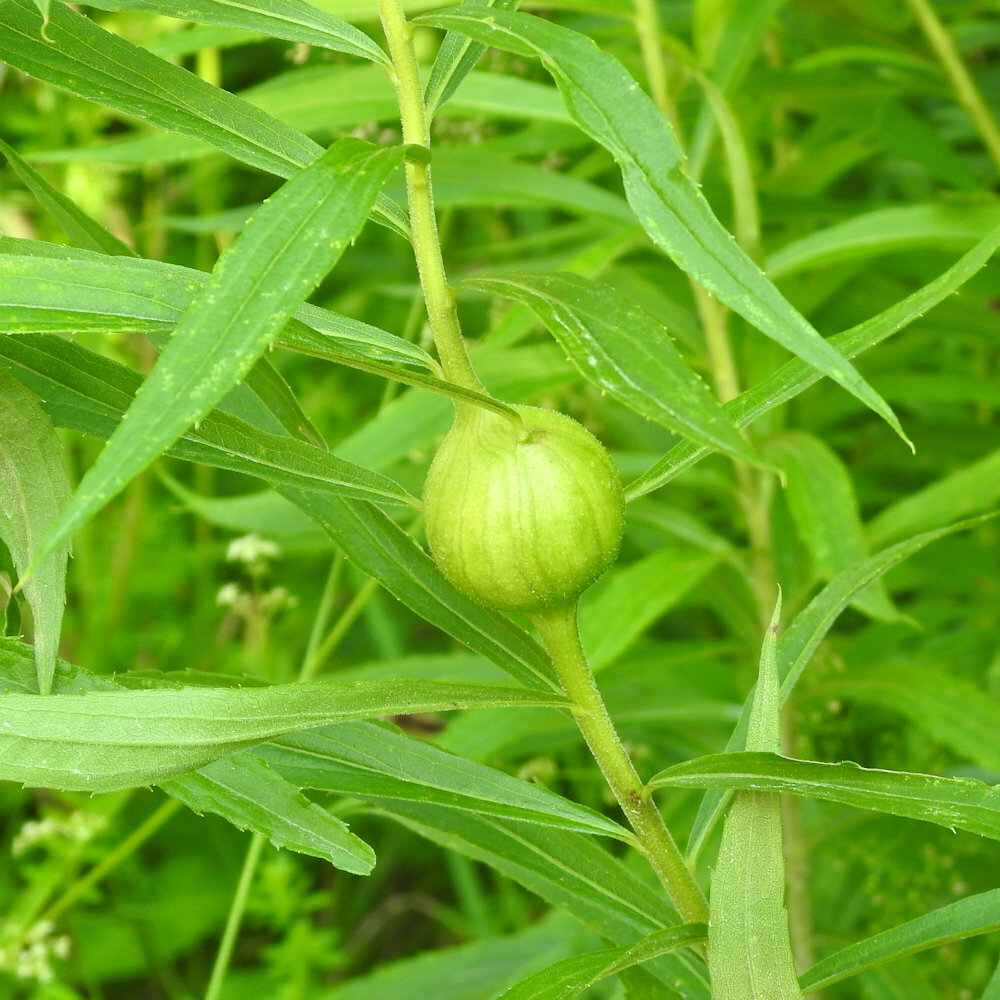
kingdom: Animalia
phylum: Arthropoda
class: Insecta
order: Diptera
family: Tephritidae
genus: Eurosta
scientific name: Eurosta solidaginis
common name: Goldenrod gall fly
